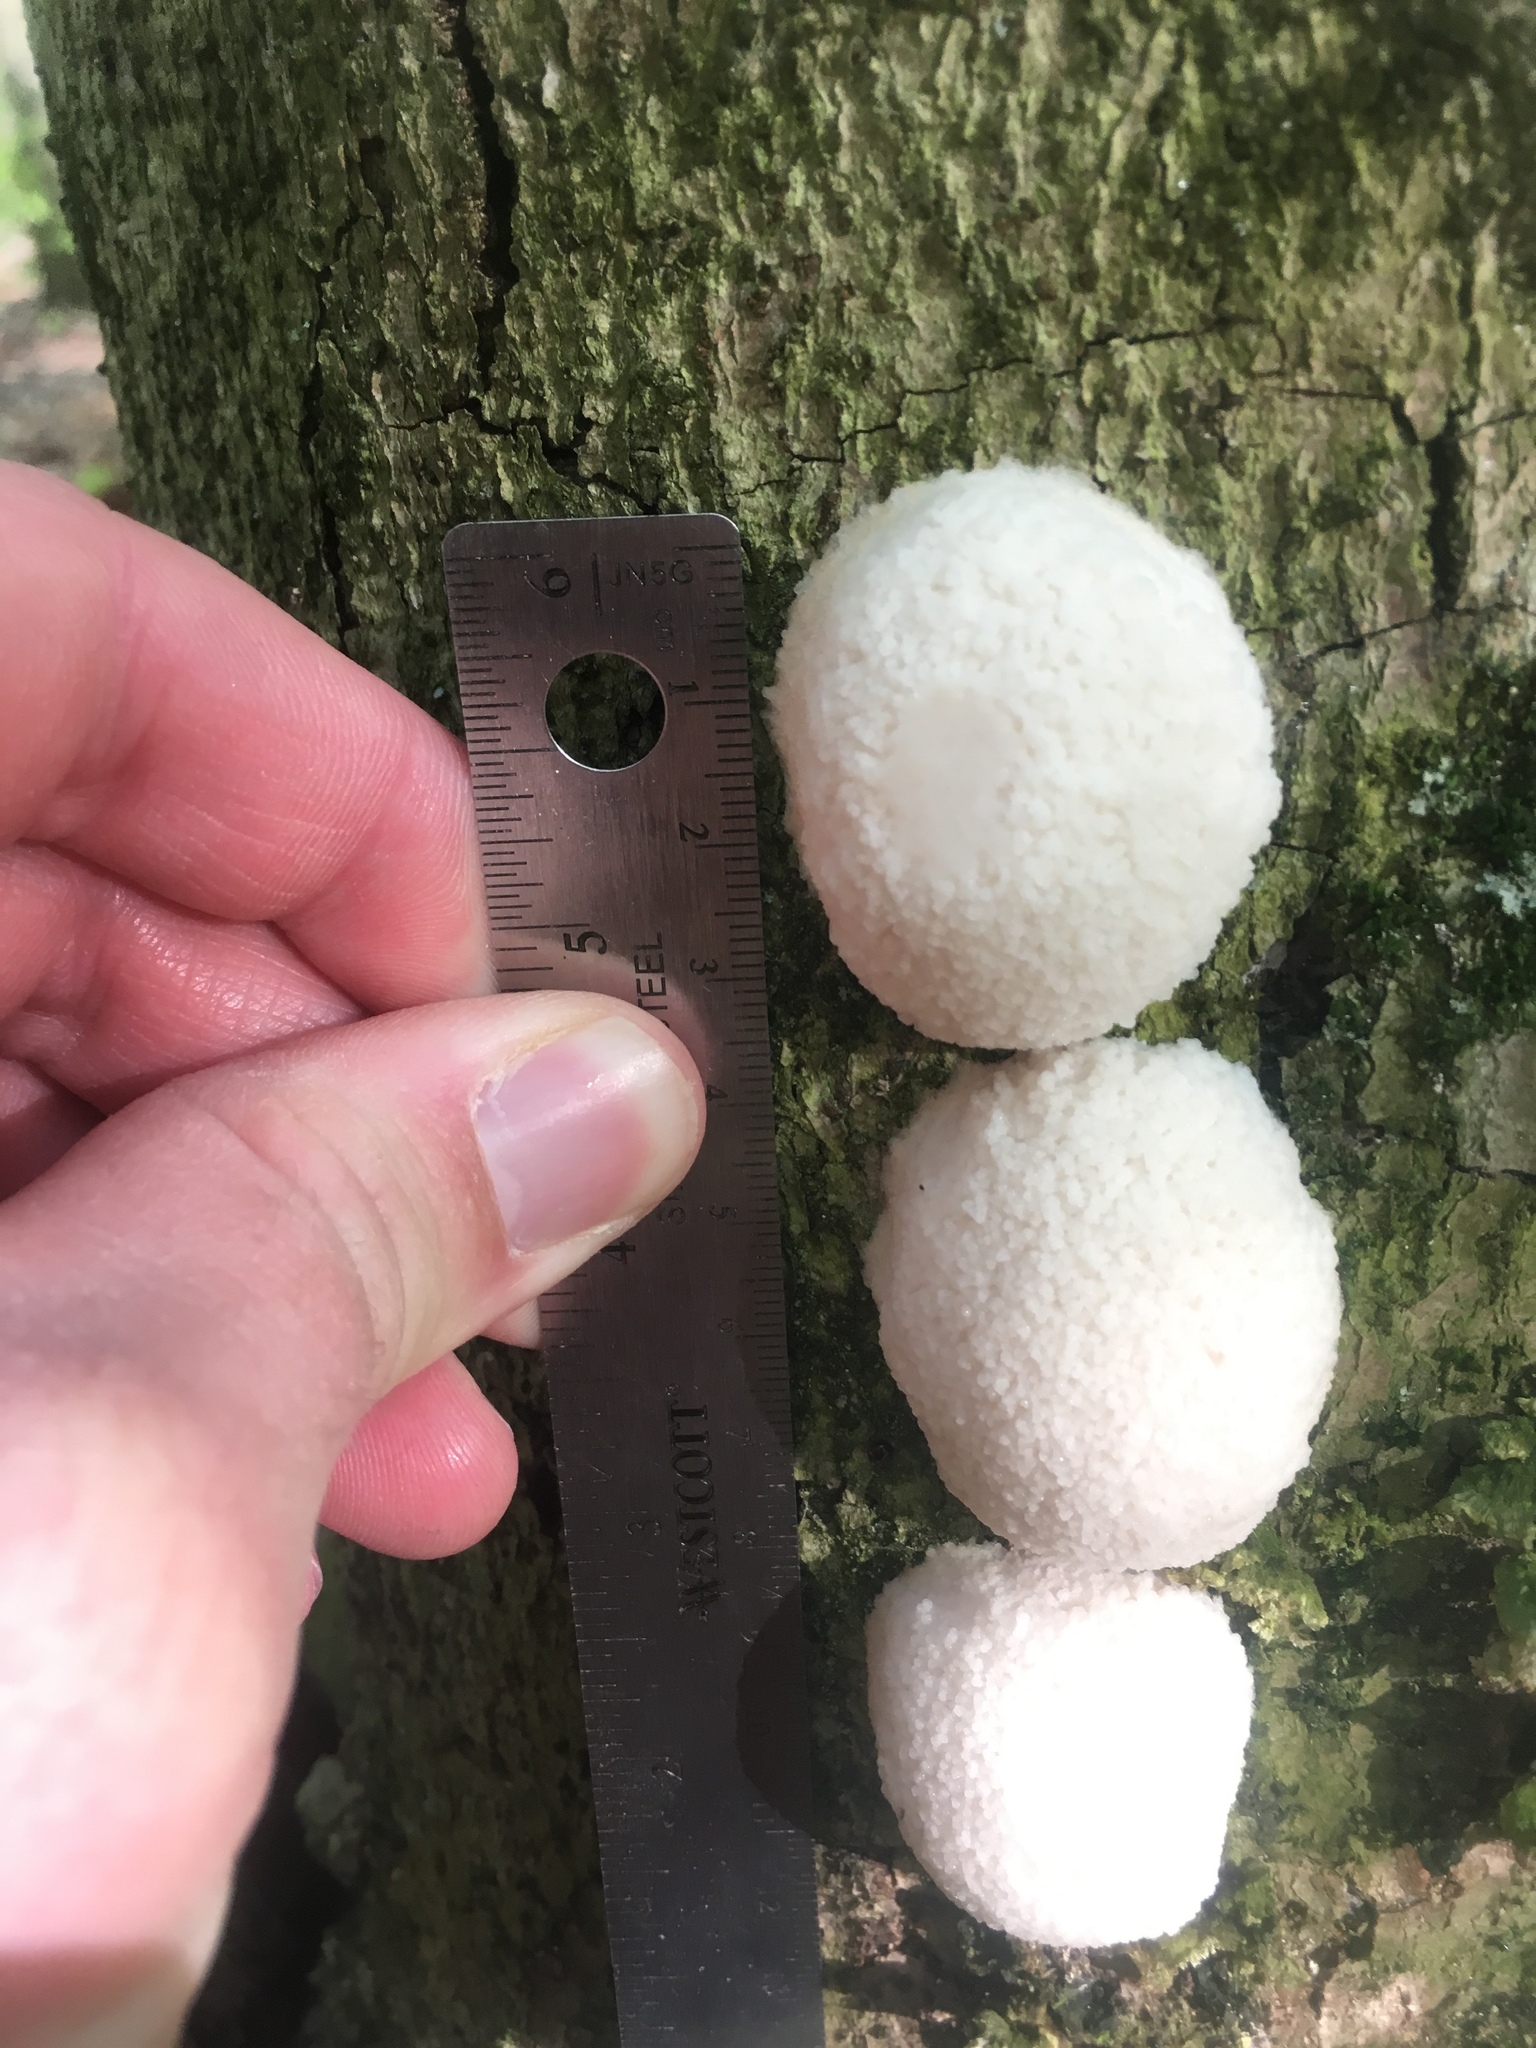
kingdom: Protozoa
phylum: Mycetozoa
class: Myxomycetes
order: Cribrariales
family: Tubiferaceae
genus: Reticularia
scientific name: Reticularia lycoperdon
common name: False puffball
